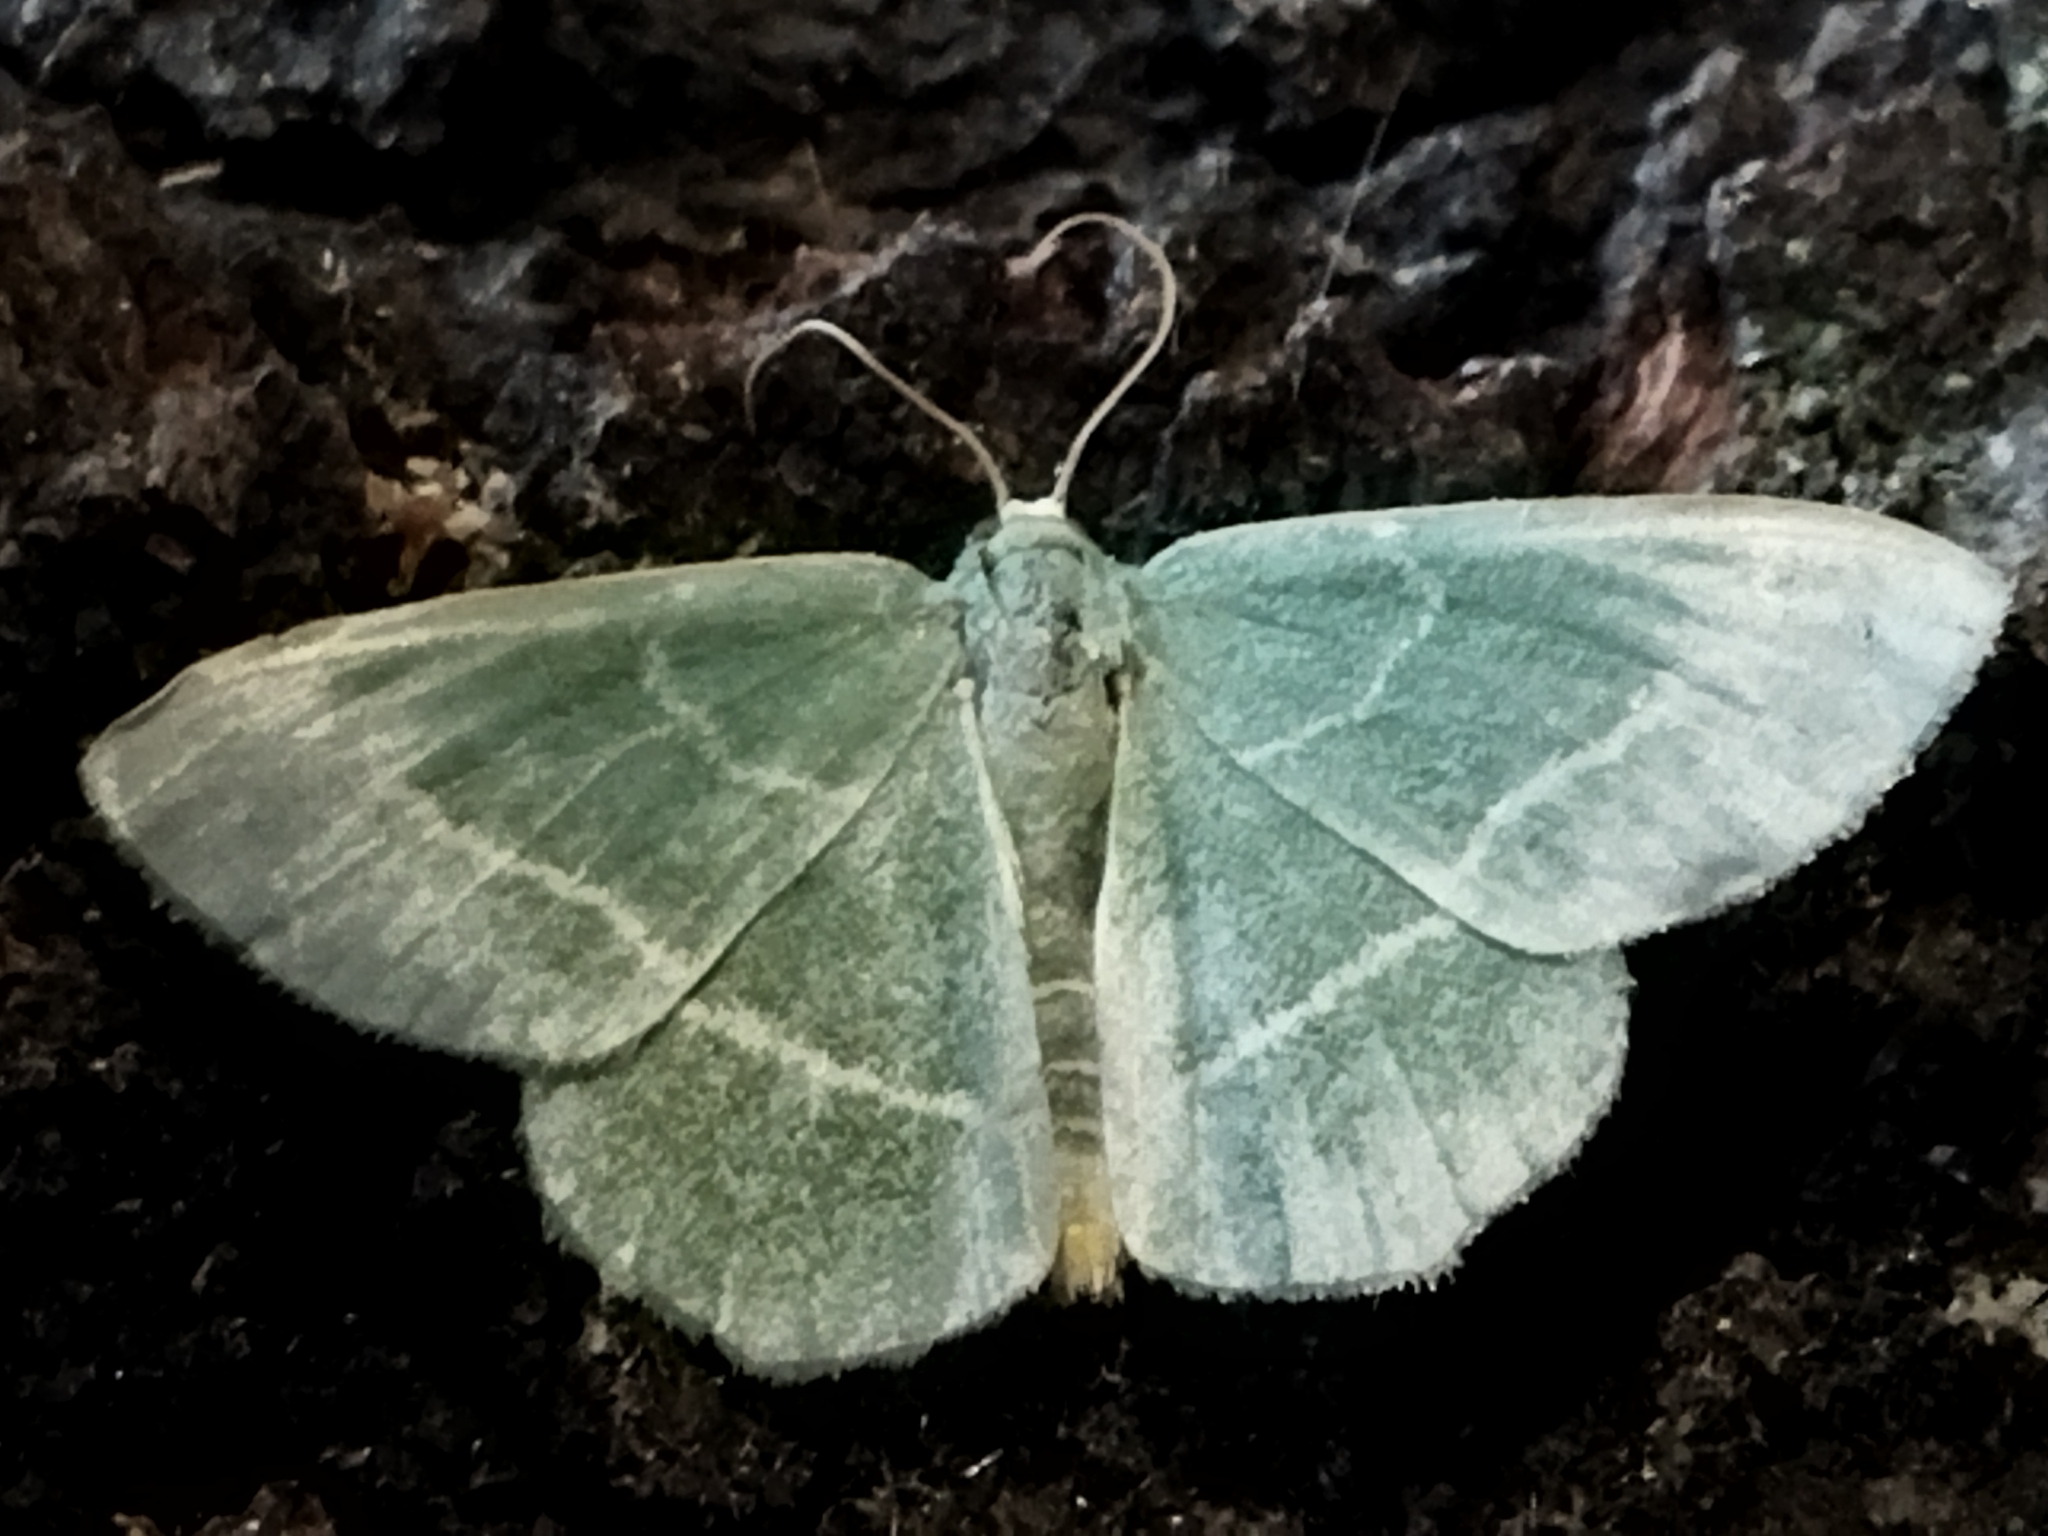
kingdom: Animalia
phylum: Arthropoda
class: Insecta
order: Lepidoptera
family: Geometridae
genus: Chlorissa
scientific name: Chlorissa
